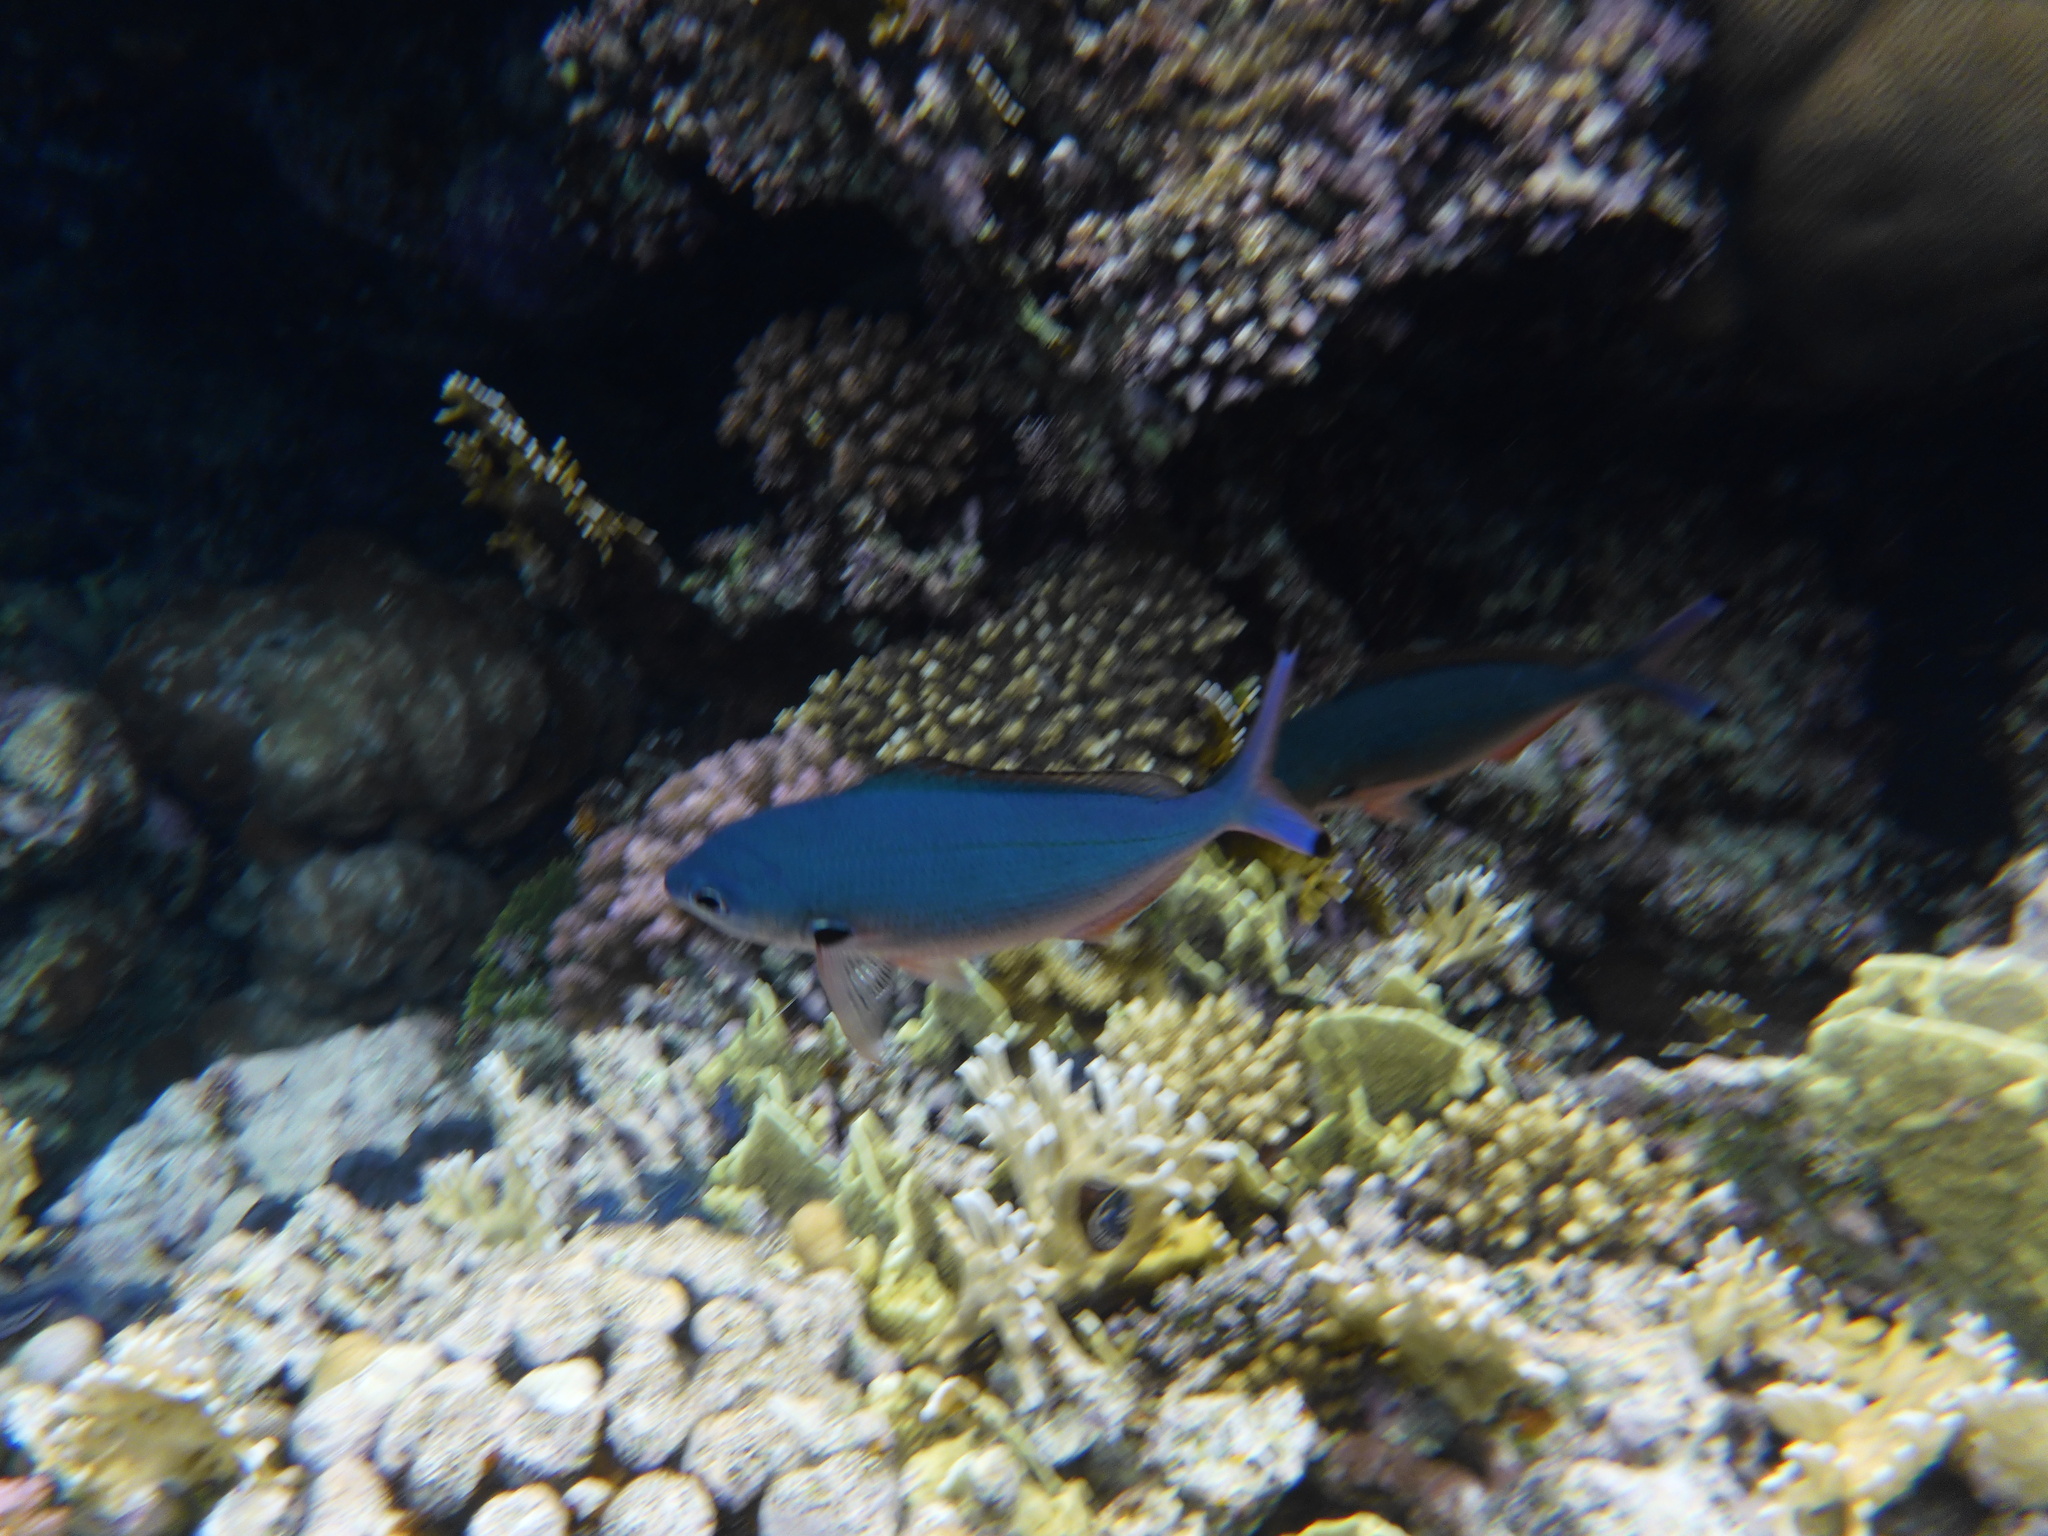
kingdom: Animalia
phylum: Chordata
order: Perciformes
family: Caesionidae
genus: Caesio
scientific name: Caesio lunaris
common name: Blue fusilier
